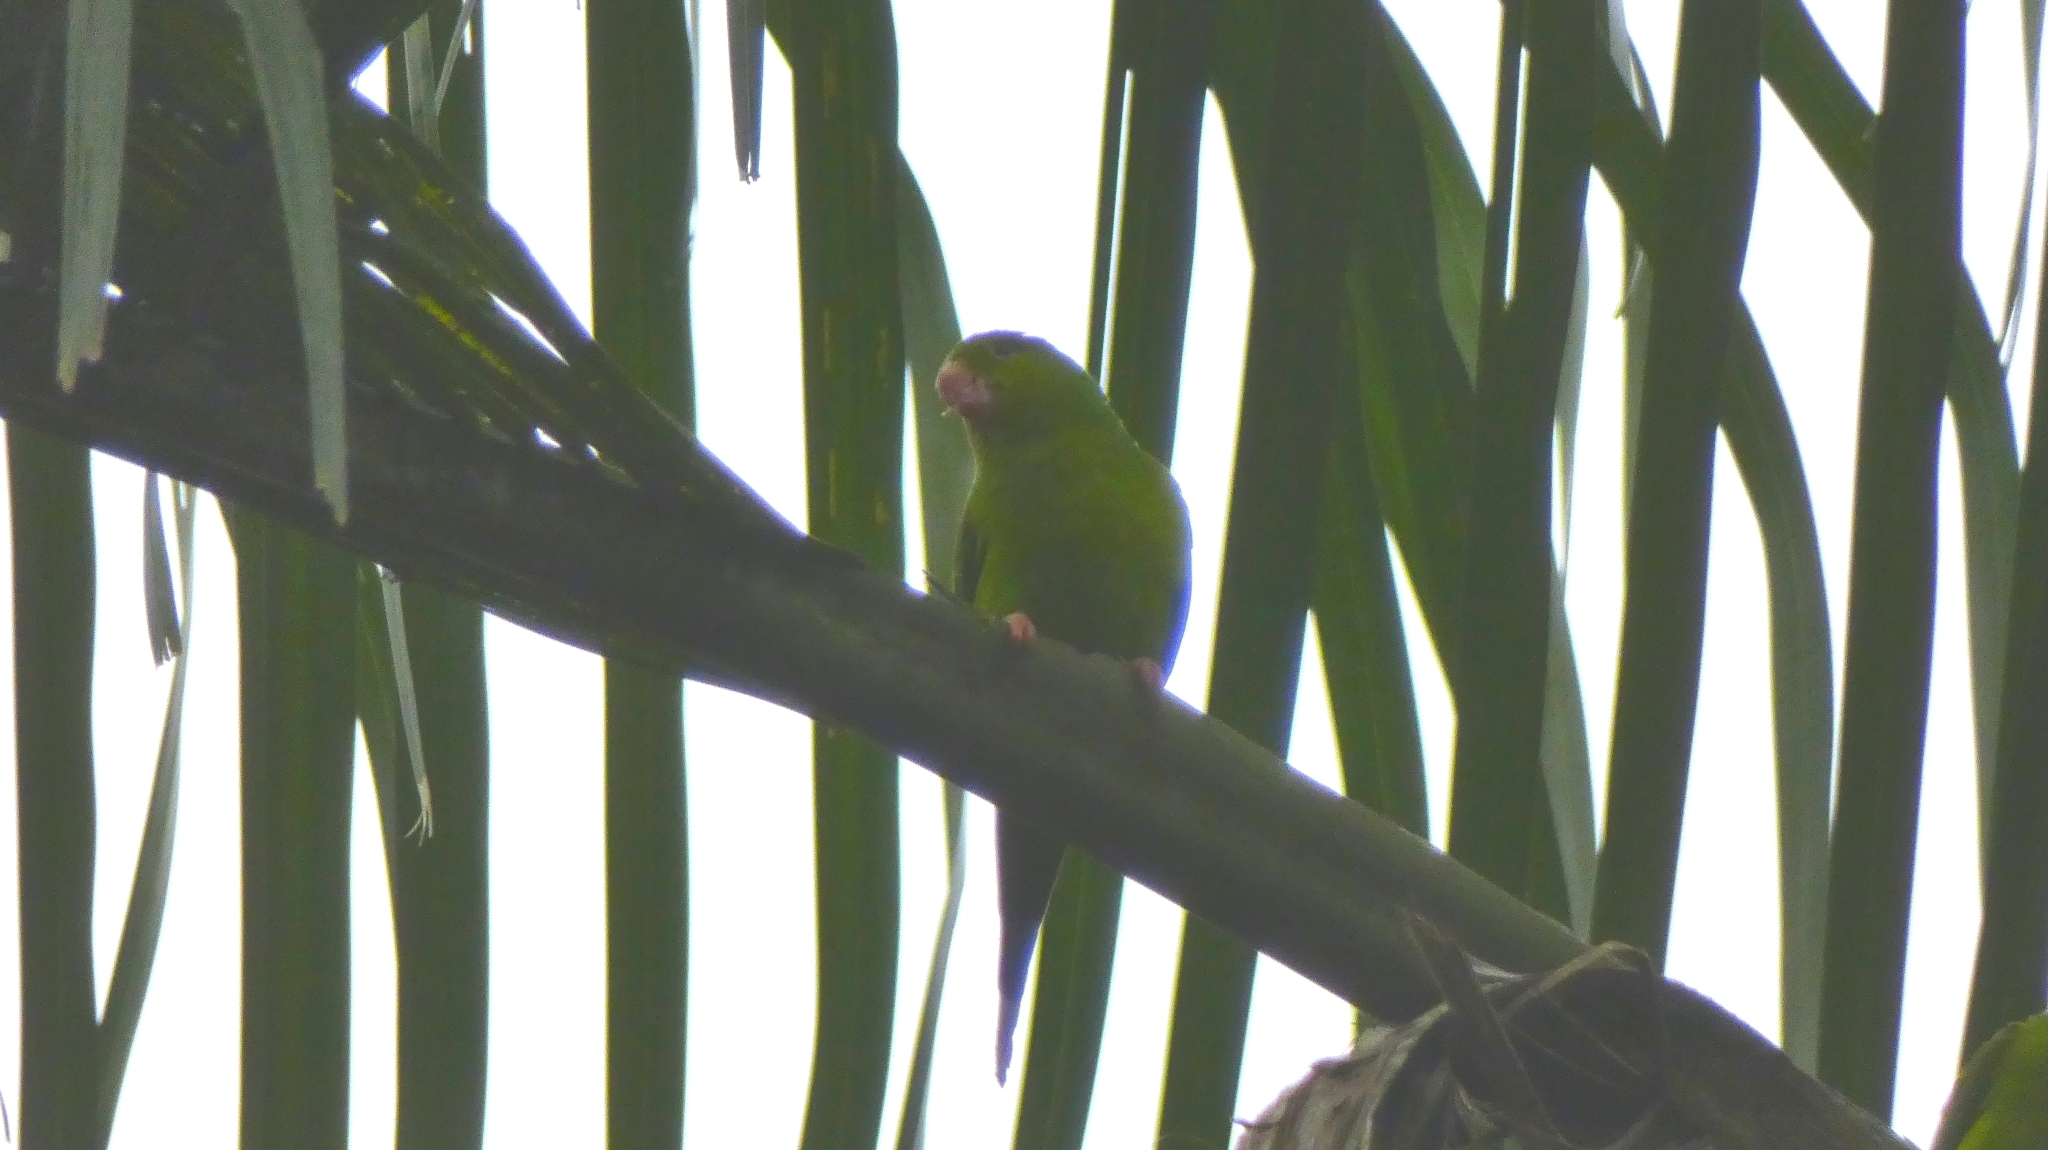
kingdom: Animalia
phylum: Chordata
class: Aves
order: Psittaciformes
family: Psittacidae
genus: Brotogeris
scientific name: Brotogeris tirica
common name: Plain parakeet
